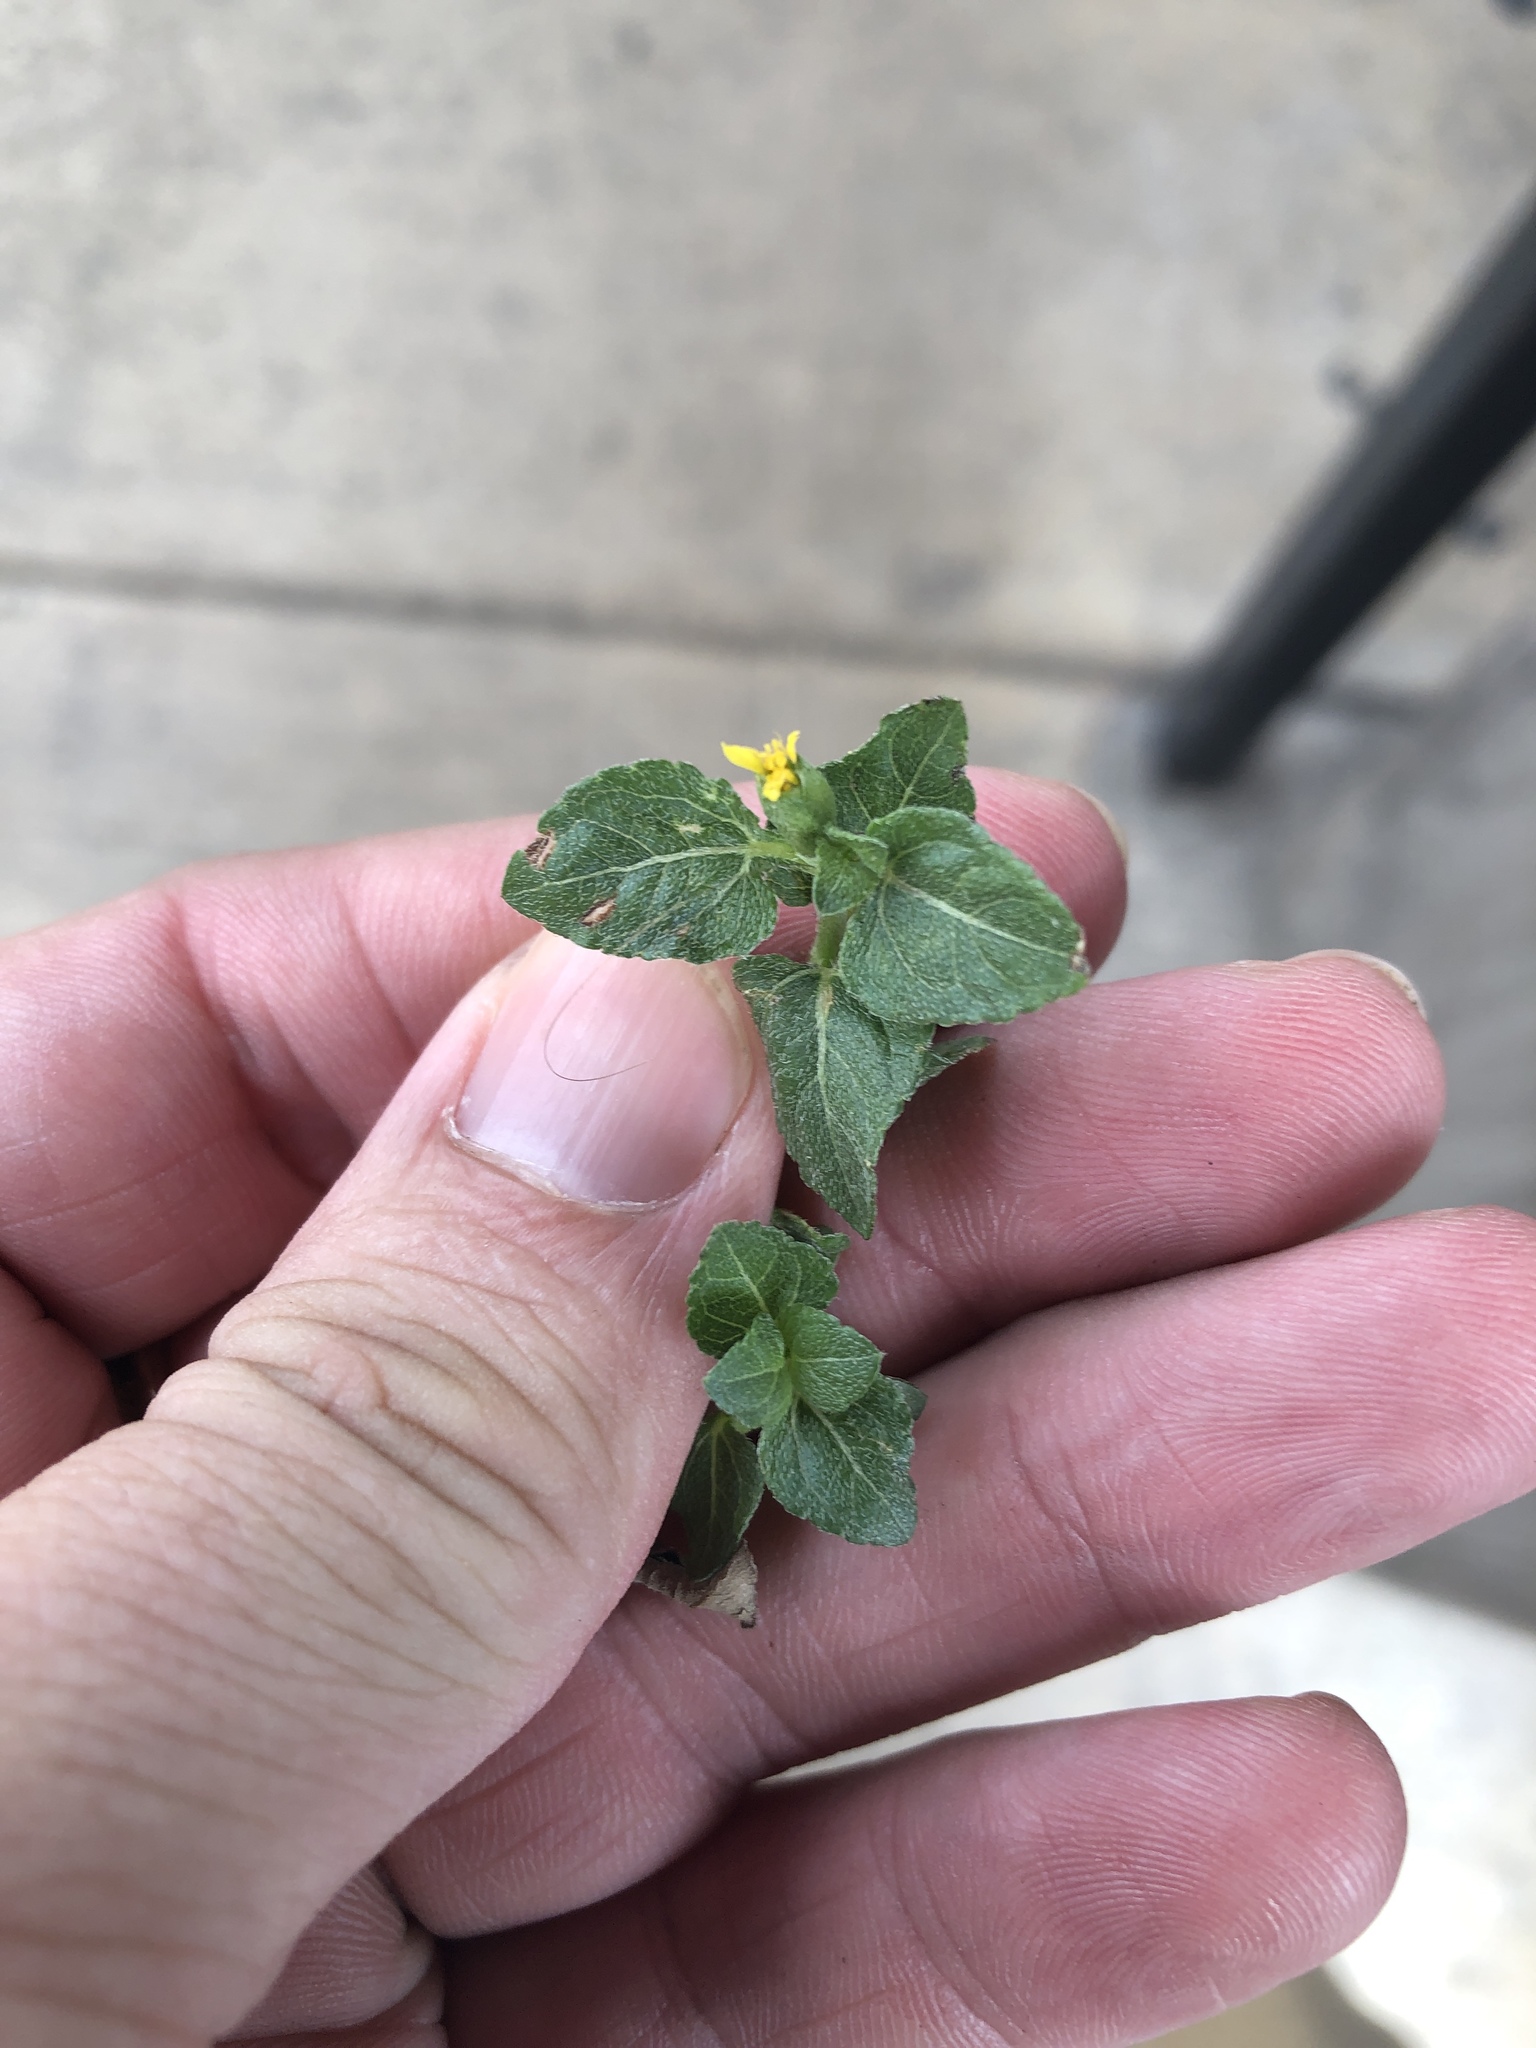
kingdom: Plantae
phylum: Tracheophyta
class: Magnoliopsida
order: Asterales
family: Asteraceae
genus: Calyptocarpus
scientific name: Calyptocarpus vialis
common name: Straggler daisy
